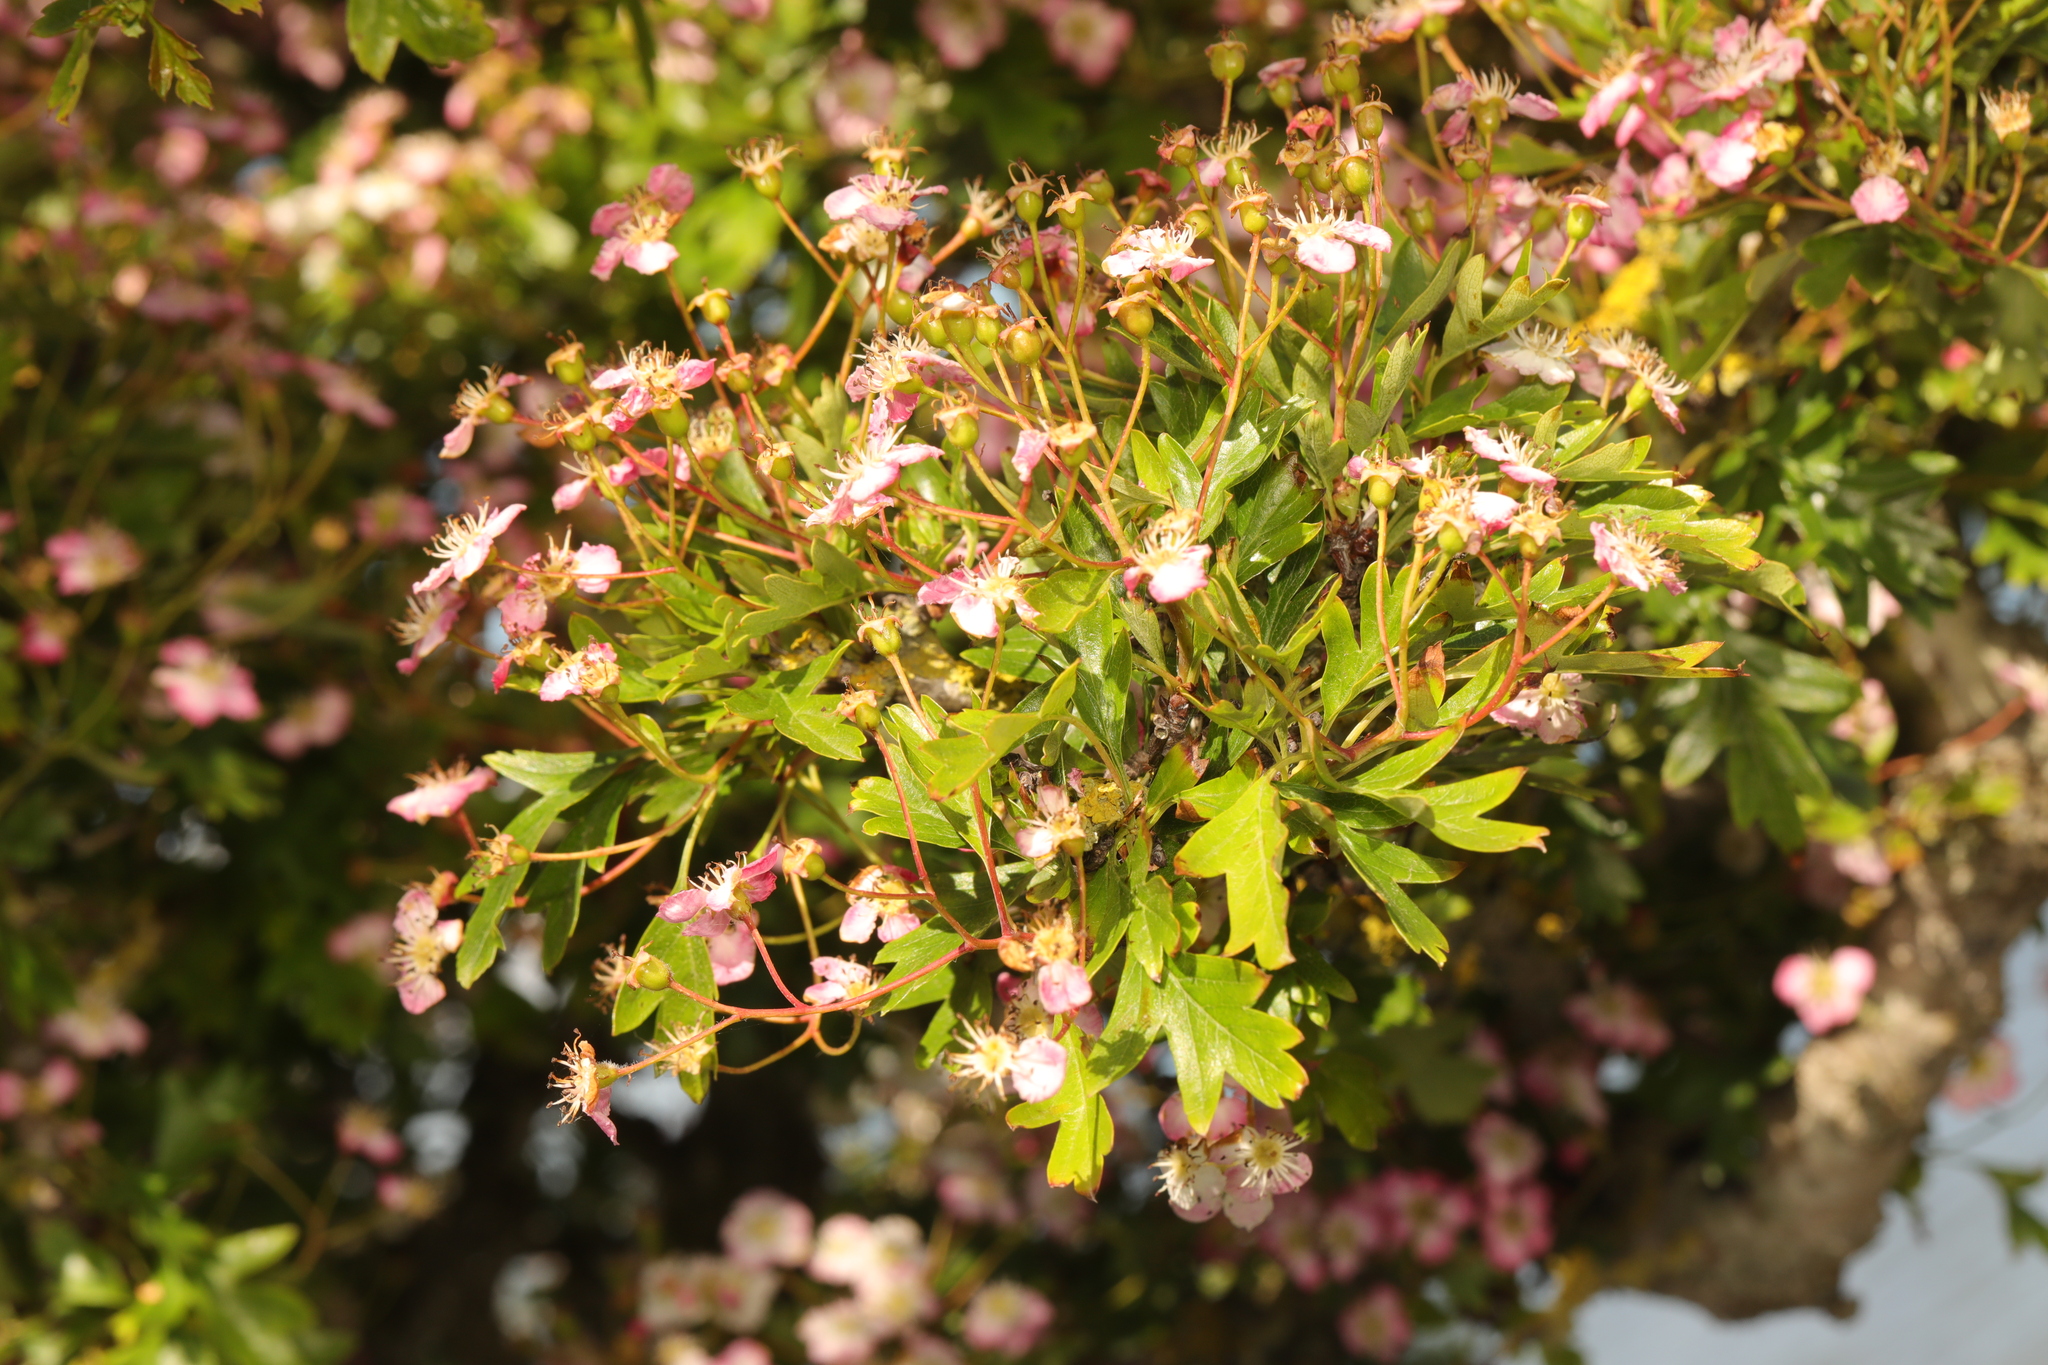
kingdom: Plantae
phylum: Tracheophyta
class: Magnoliopsida
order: Rosales
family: Rosaceae
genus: Crataegus
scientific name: Crataegus monogyna
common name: Hawthorn
